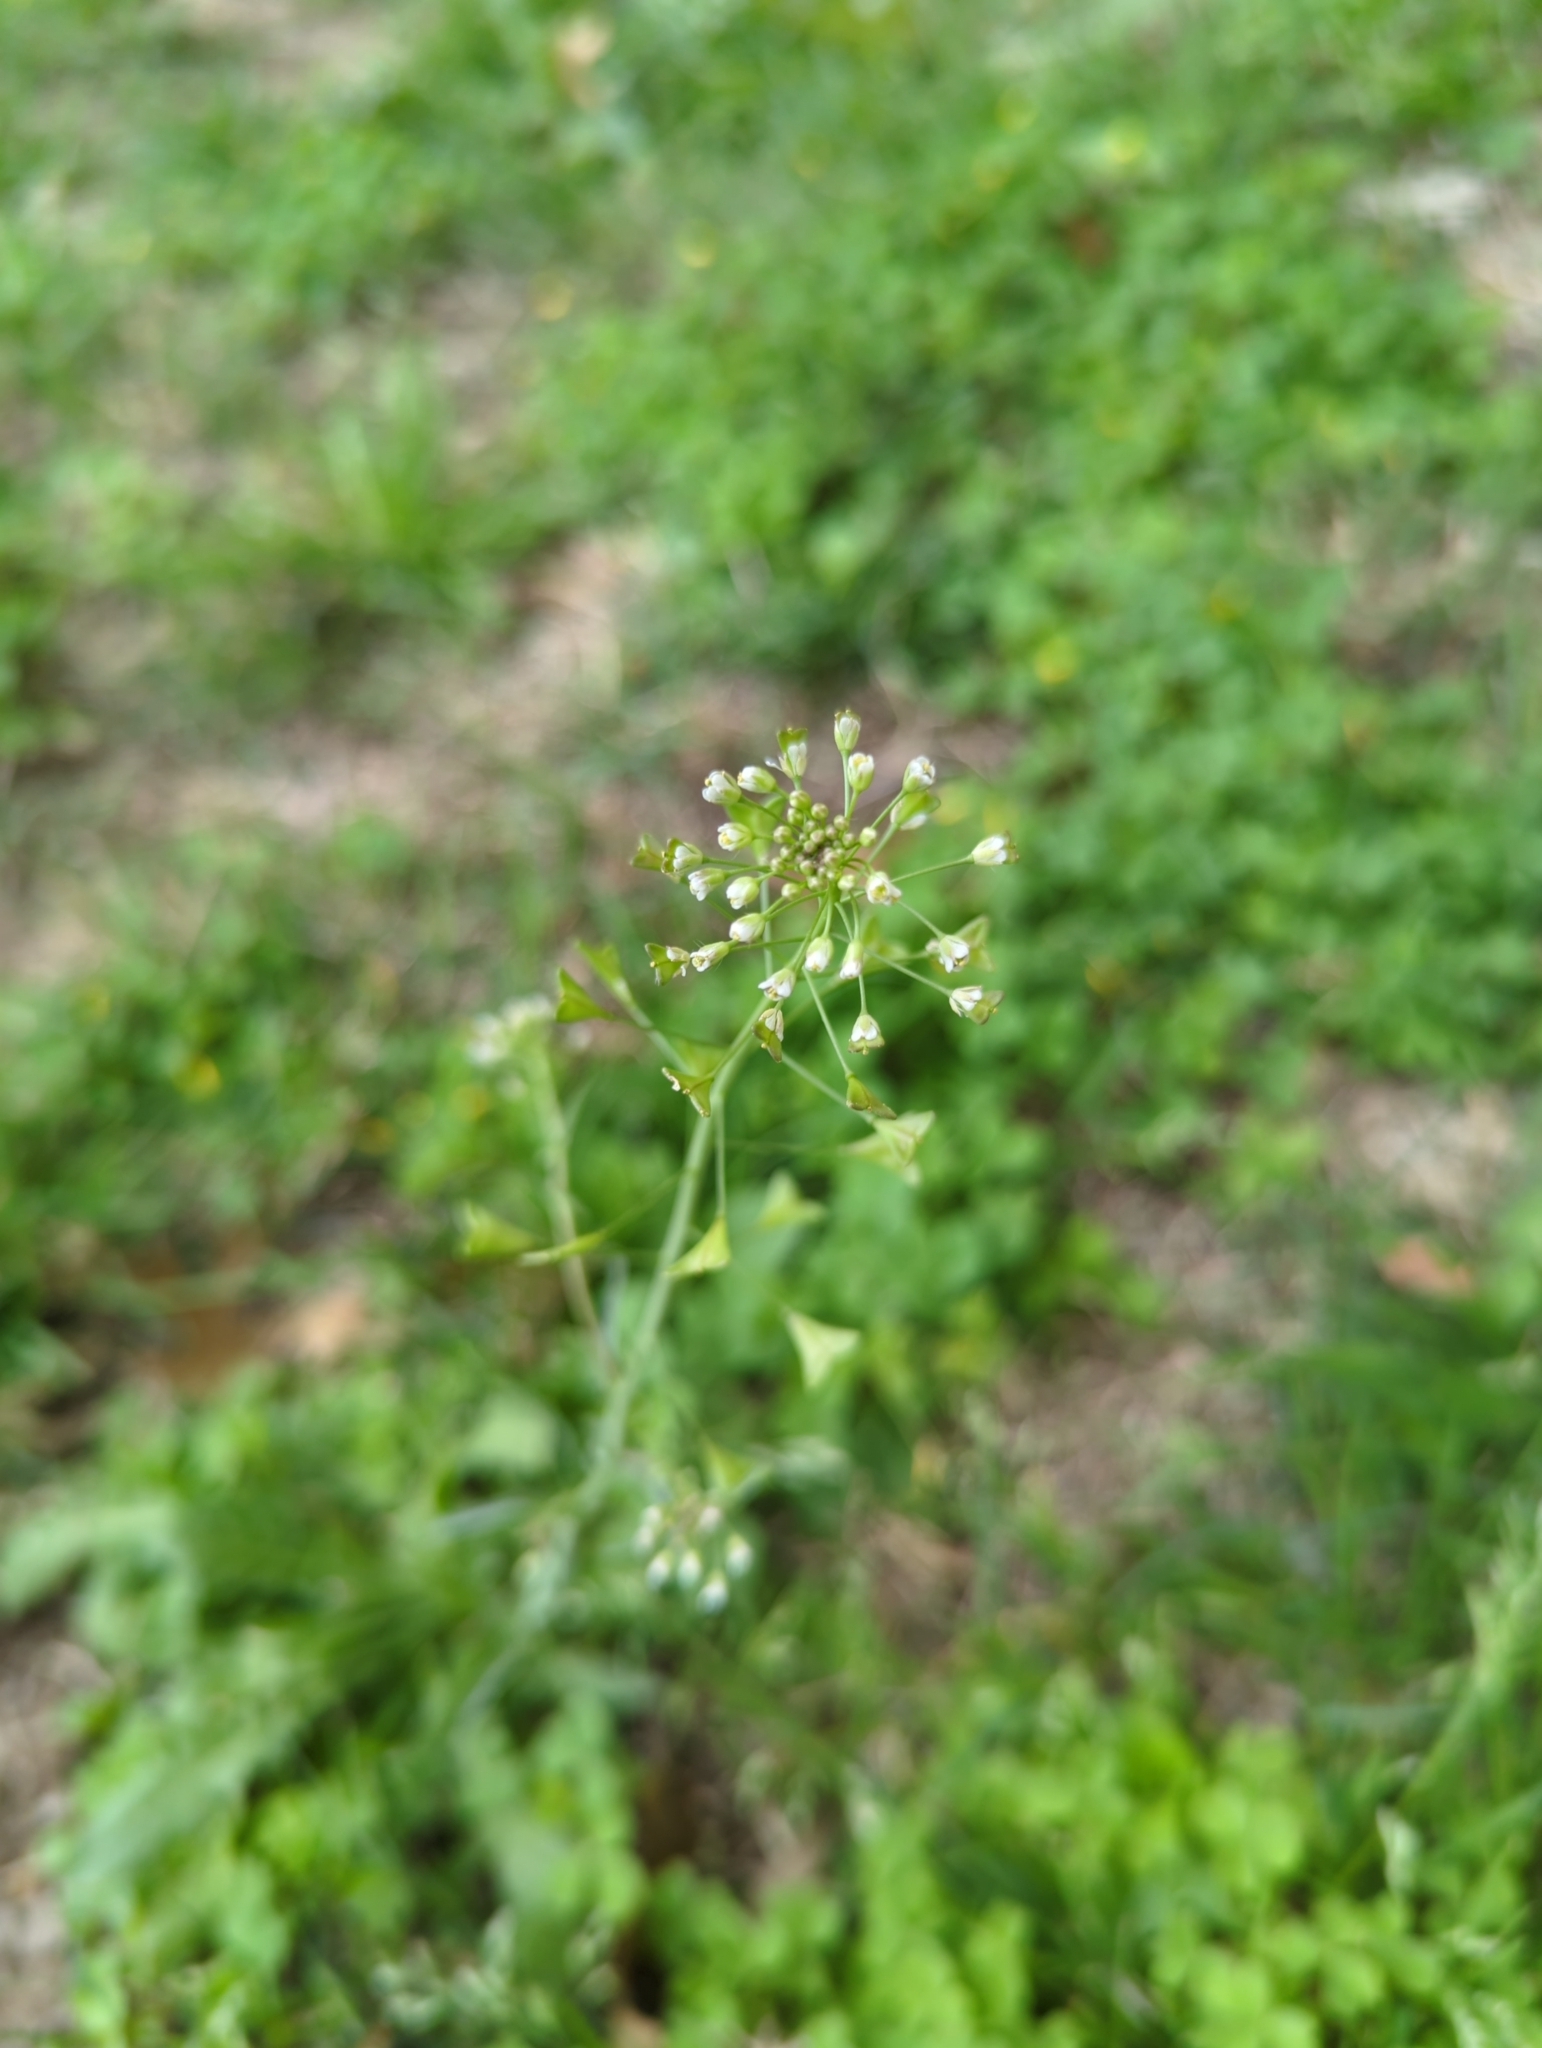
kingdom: Plantae
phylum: Tracheophyta
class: Magnoliopsida
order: Brassicales
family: Brassicaceae
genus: Capsella
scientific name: Capsella bursa-pastoris
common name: Shepherd's purse
